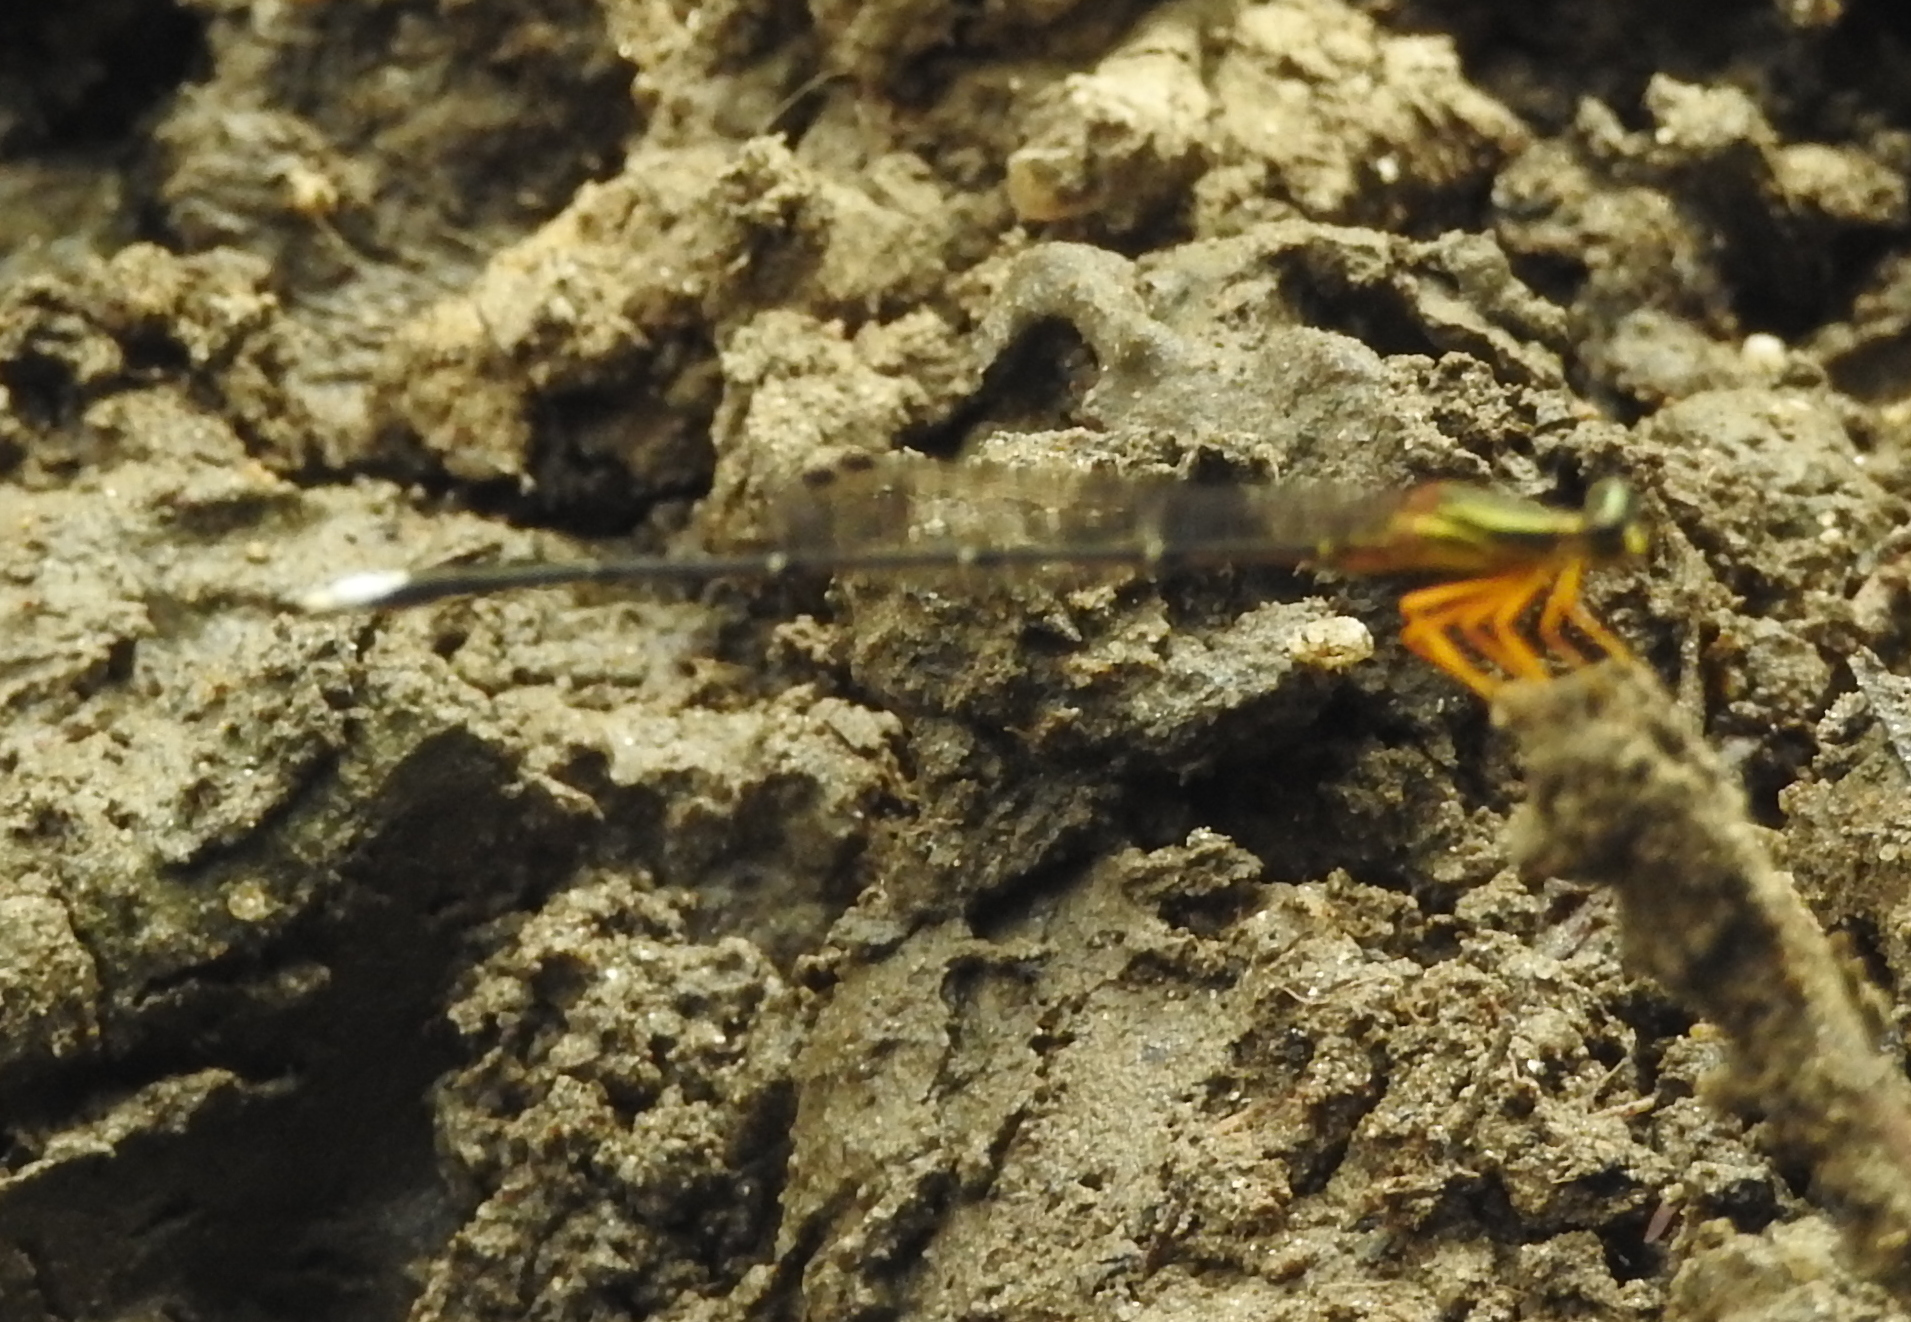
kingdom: Animalia
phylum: Arthropoda
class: Insecta
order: Odonata
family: Platycnemididae
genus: Copera
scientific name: Copera marginipes
